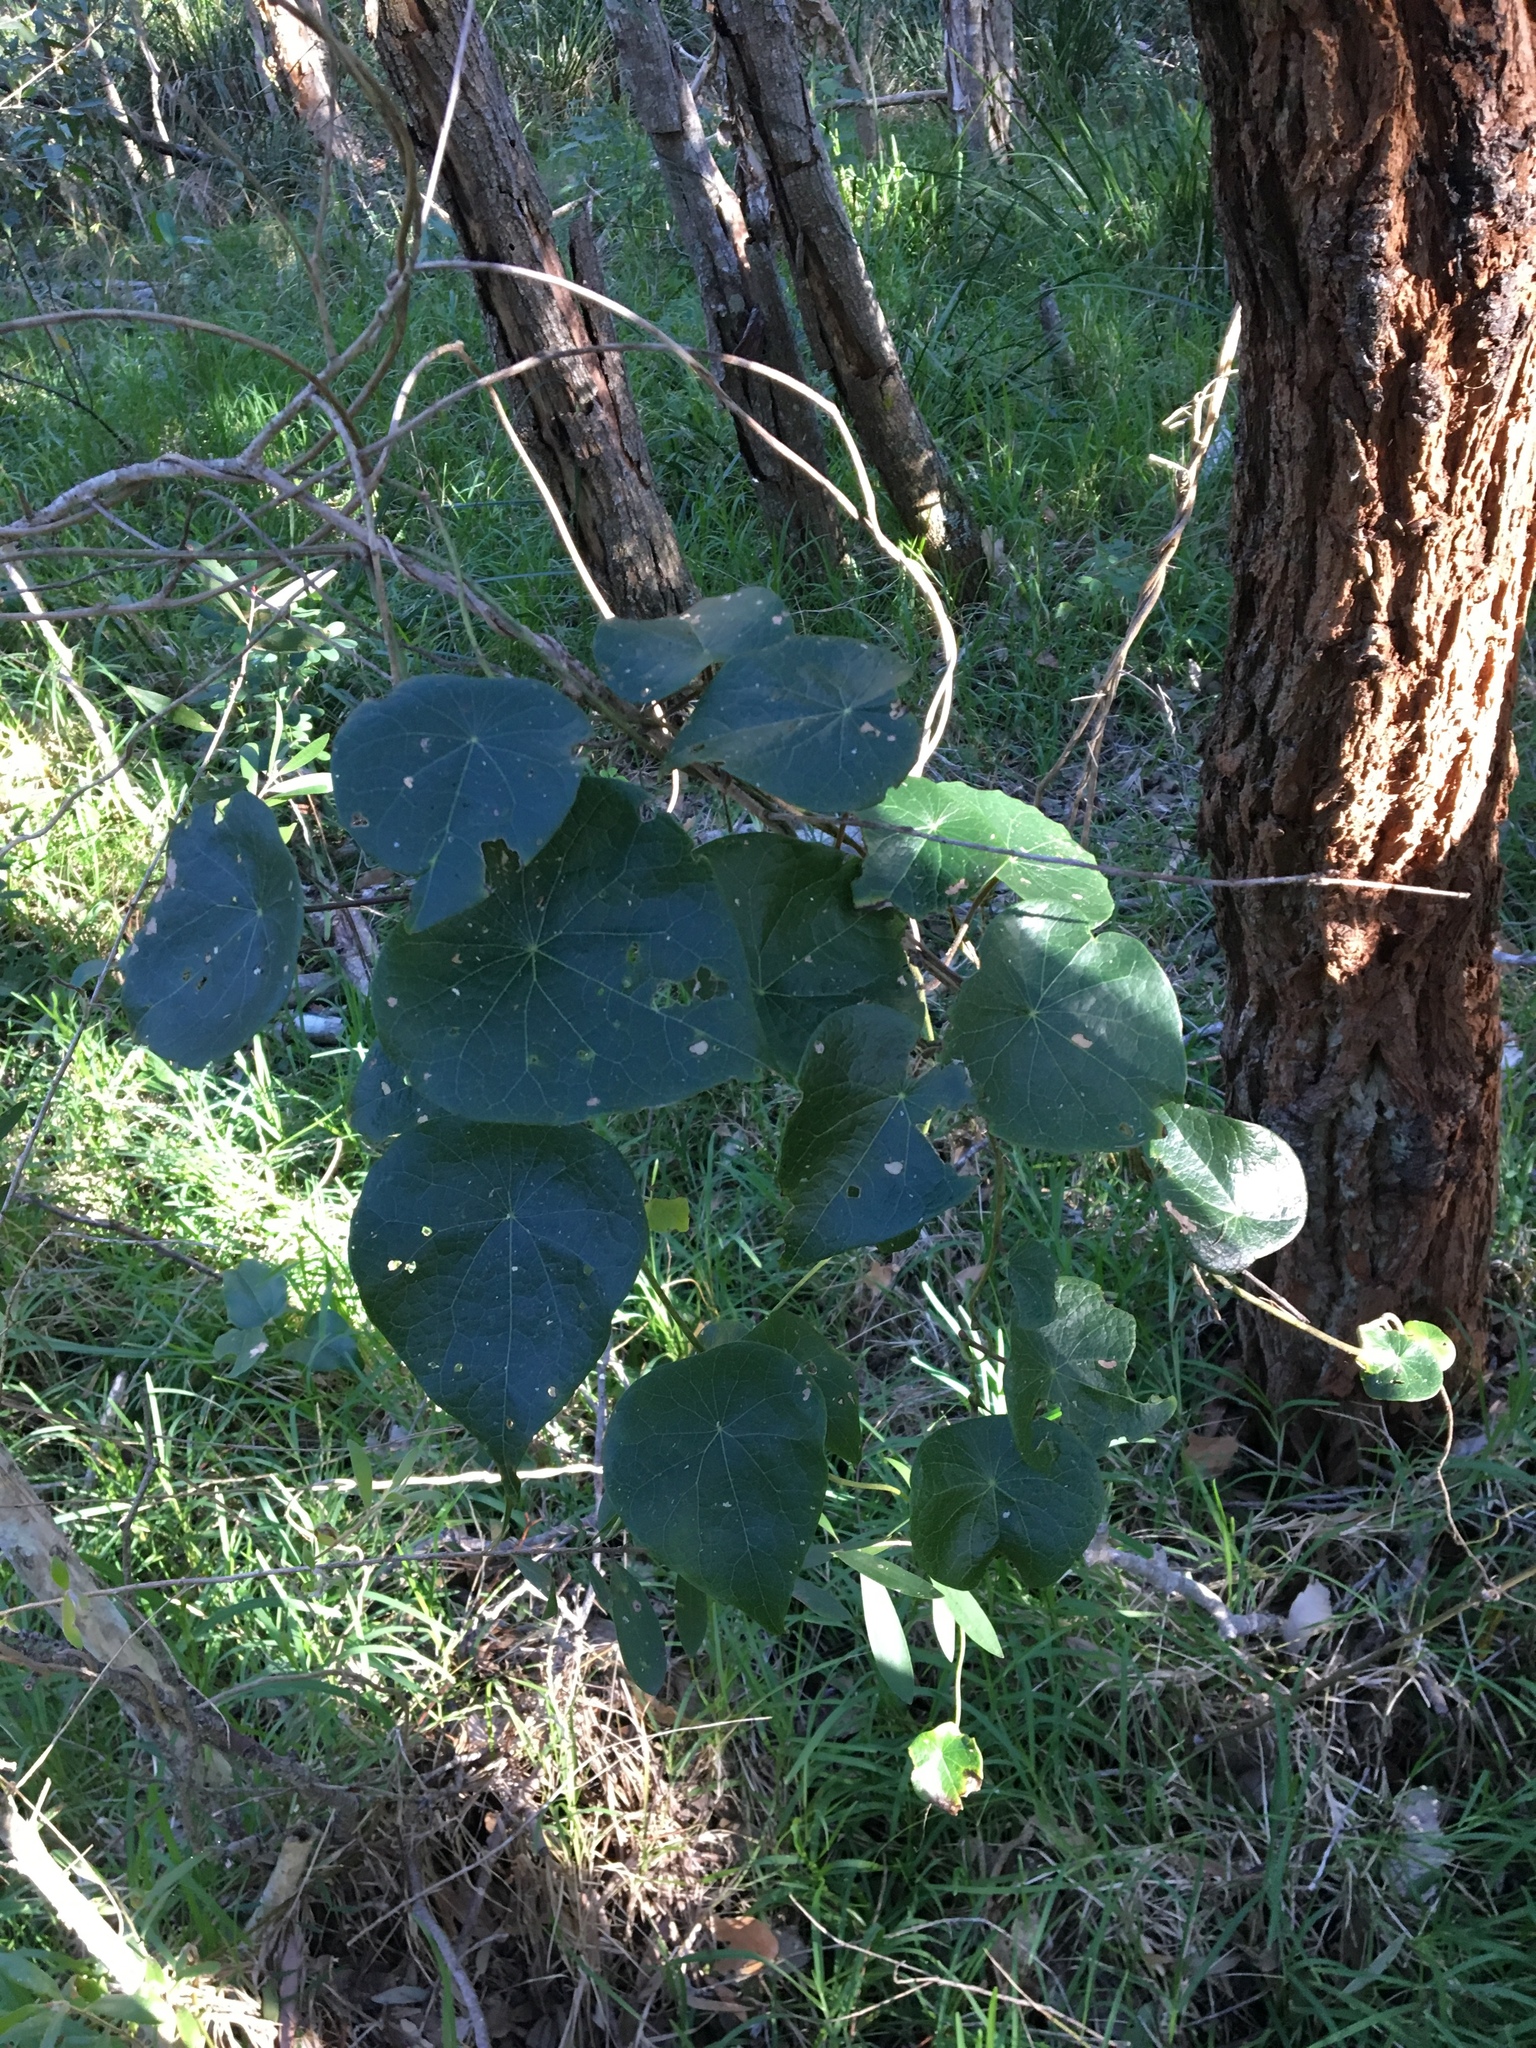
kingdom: Plantae
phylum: Tracheophyta
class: Magnoliopsida
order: Ranunculales
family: Menispermaceae
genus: Stephania
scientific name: Stephania japonica
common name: Snake vine
